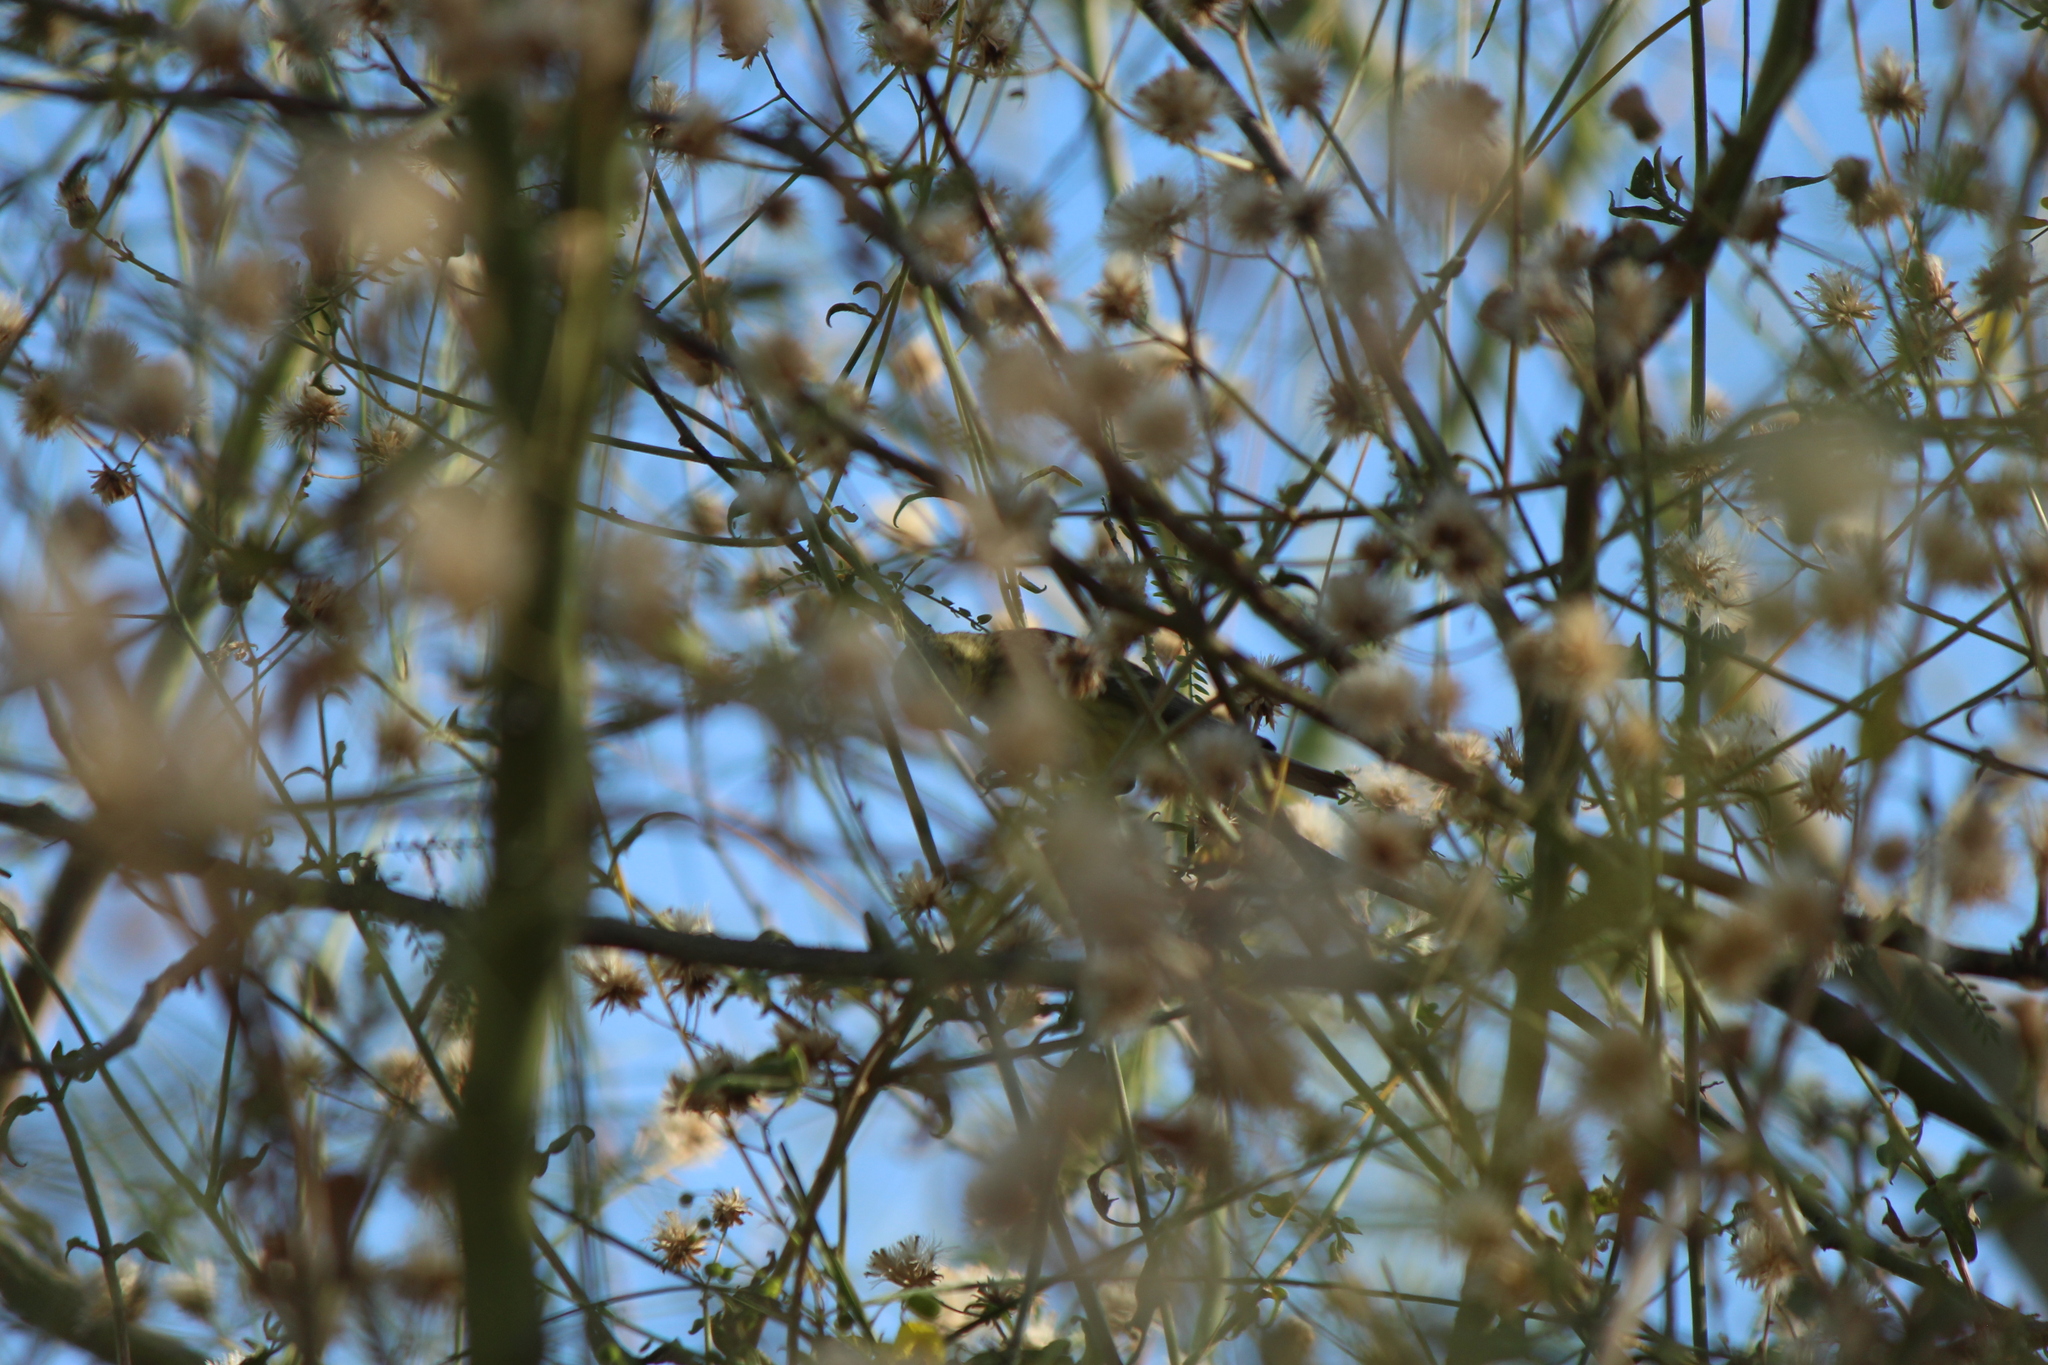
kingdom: Animalia
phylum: Chordata
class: Aves
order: Passeriformes
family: Fringillidae
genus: Spinus
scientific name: Spinus psaltria
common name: Lesser goldfinch
